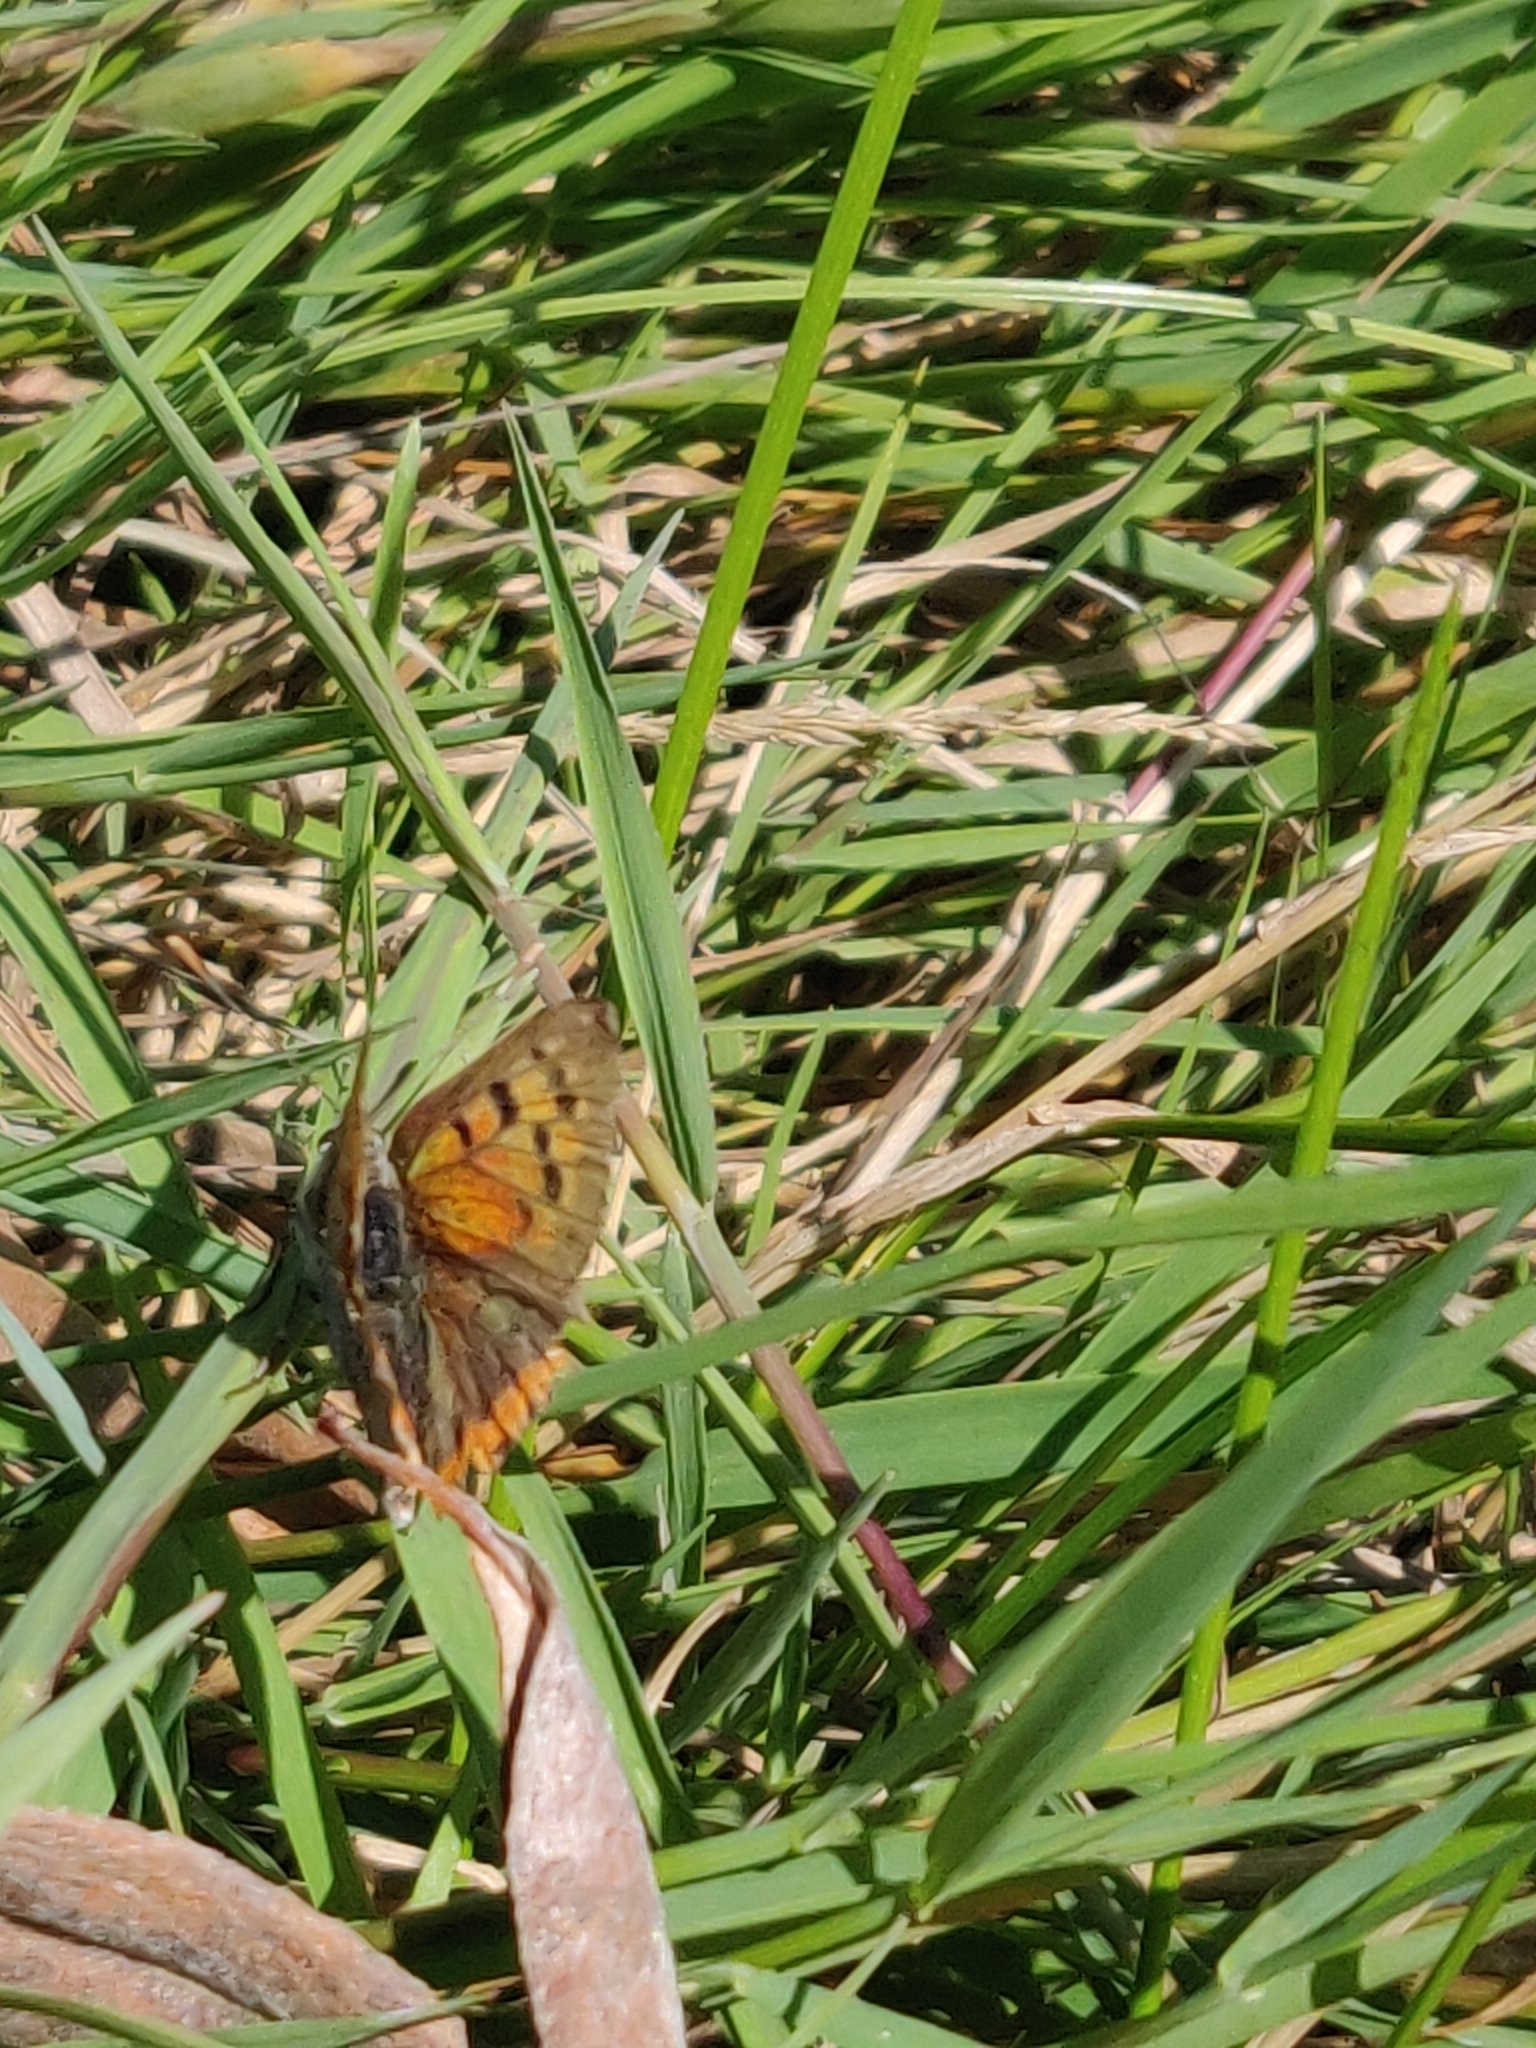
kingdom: Animalia
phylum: Arthropoda
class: Insecta
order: Lepidoptera
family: Lycaenidae
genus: Lycaena
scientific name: Lycaena phlaeas
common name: Small copper
